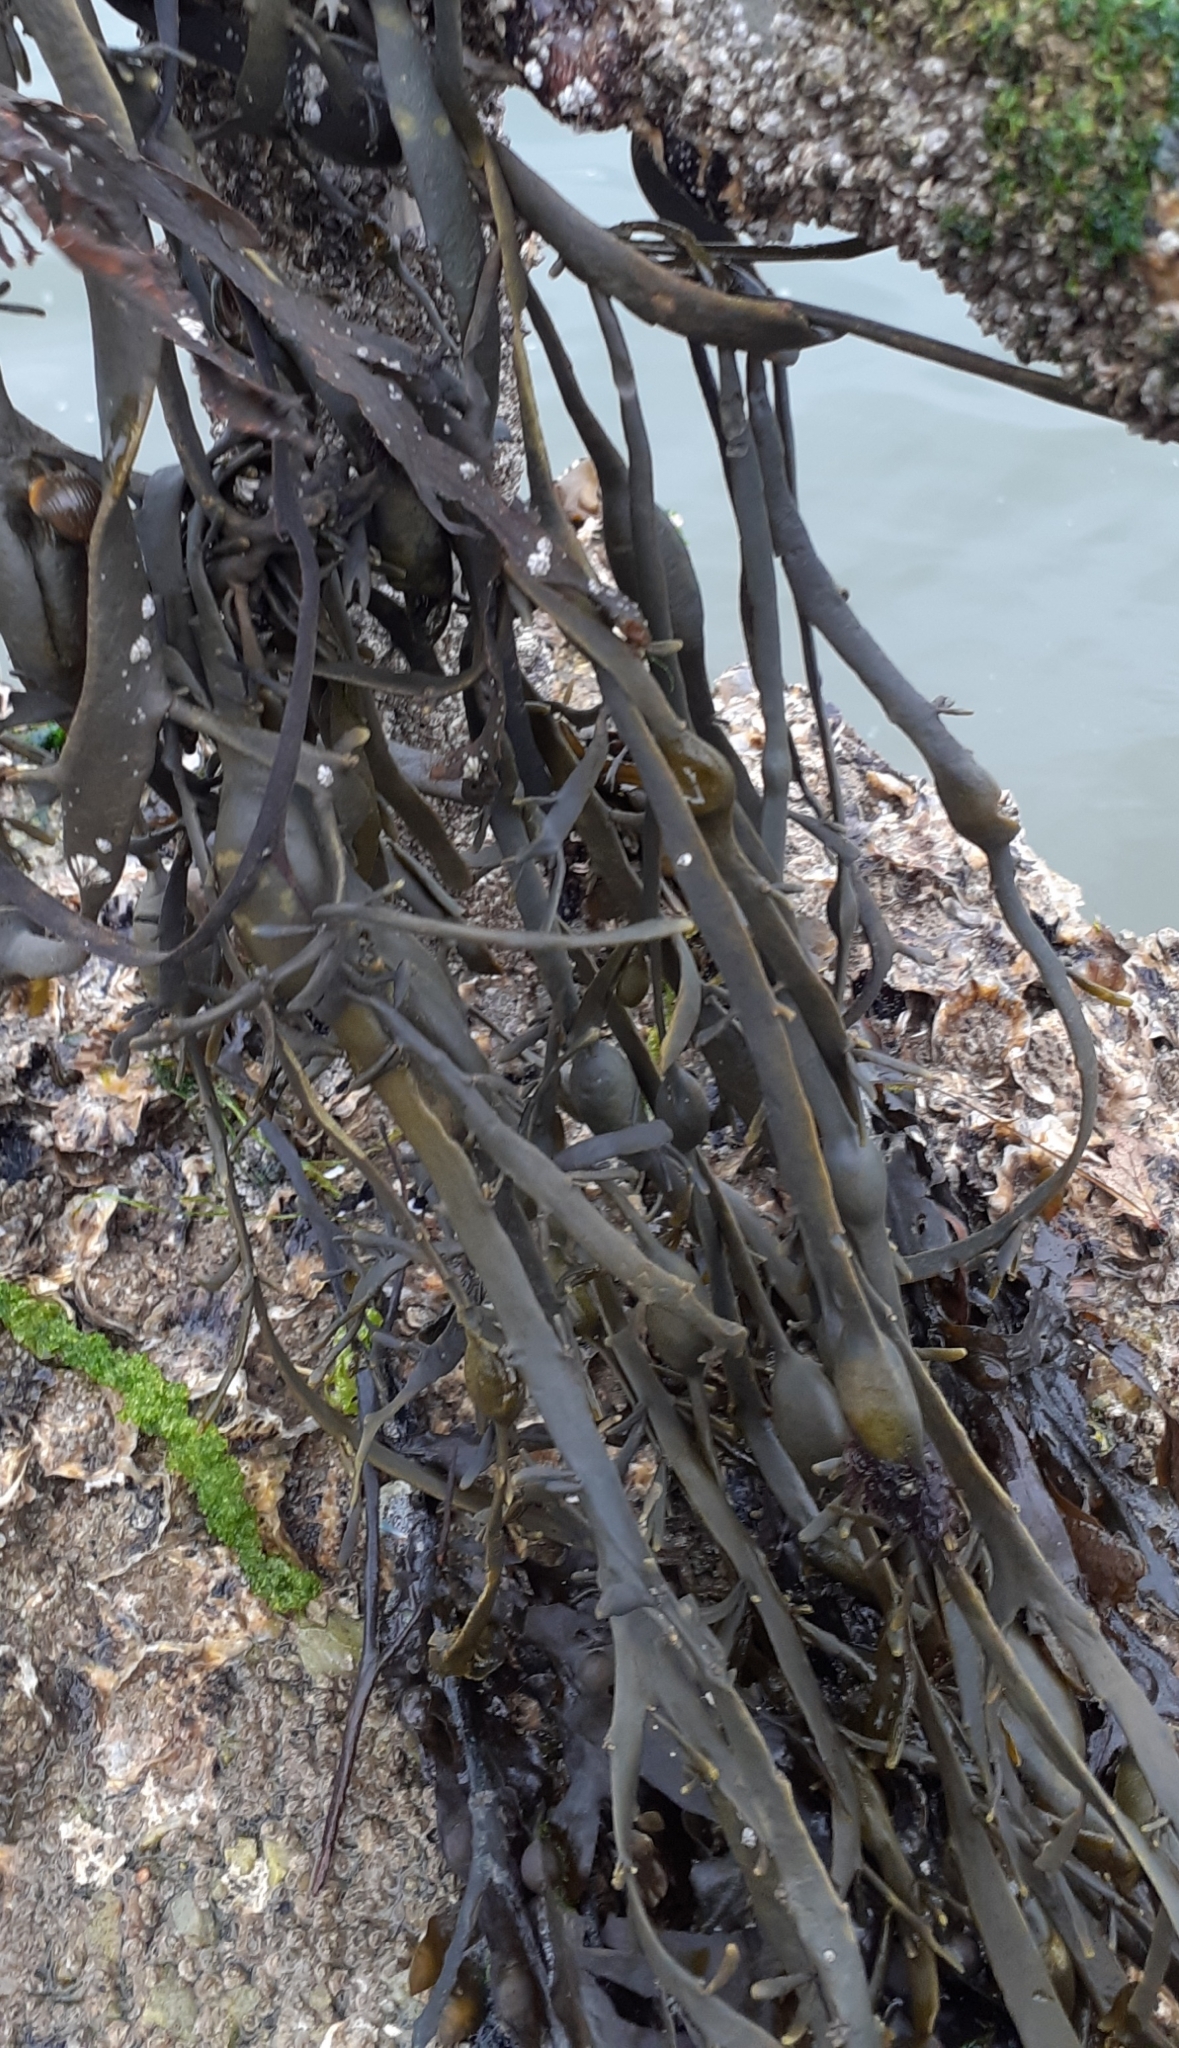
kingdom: Chromista
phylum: Ochrophyta
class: Phaeophyceae
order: Fucales
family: Fucaceae
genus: Ascophyllum
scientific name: Ascophyllum nodosum
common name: Knotted wrack
